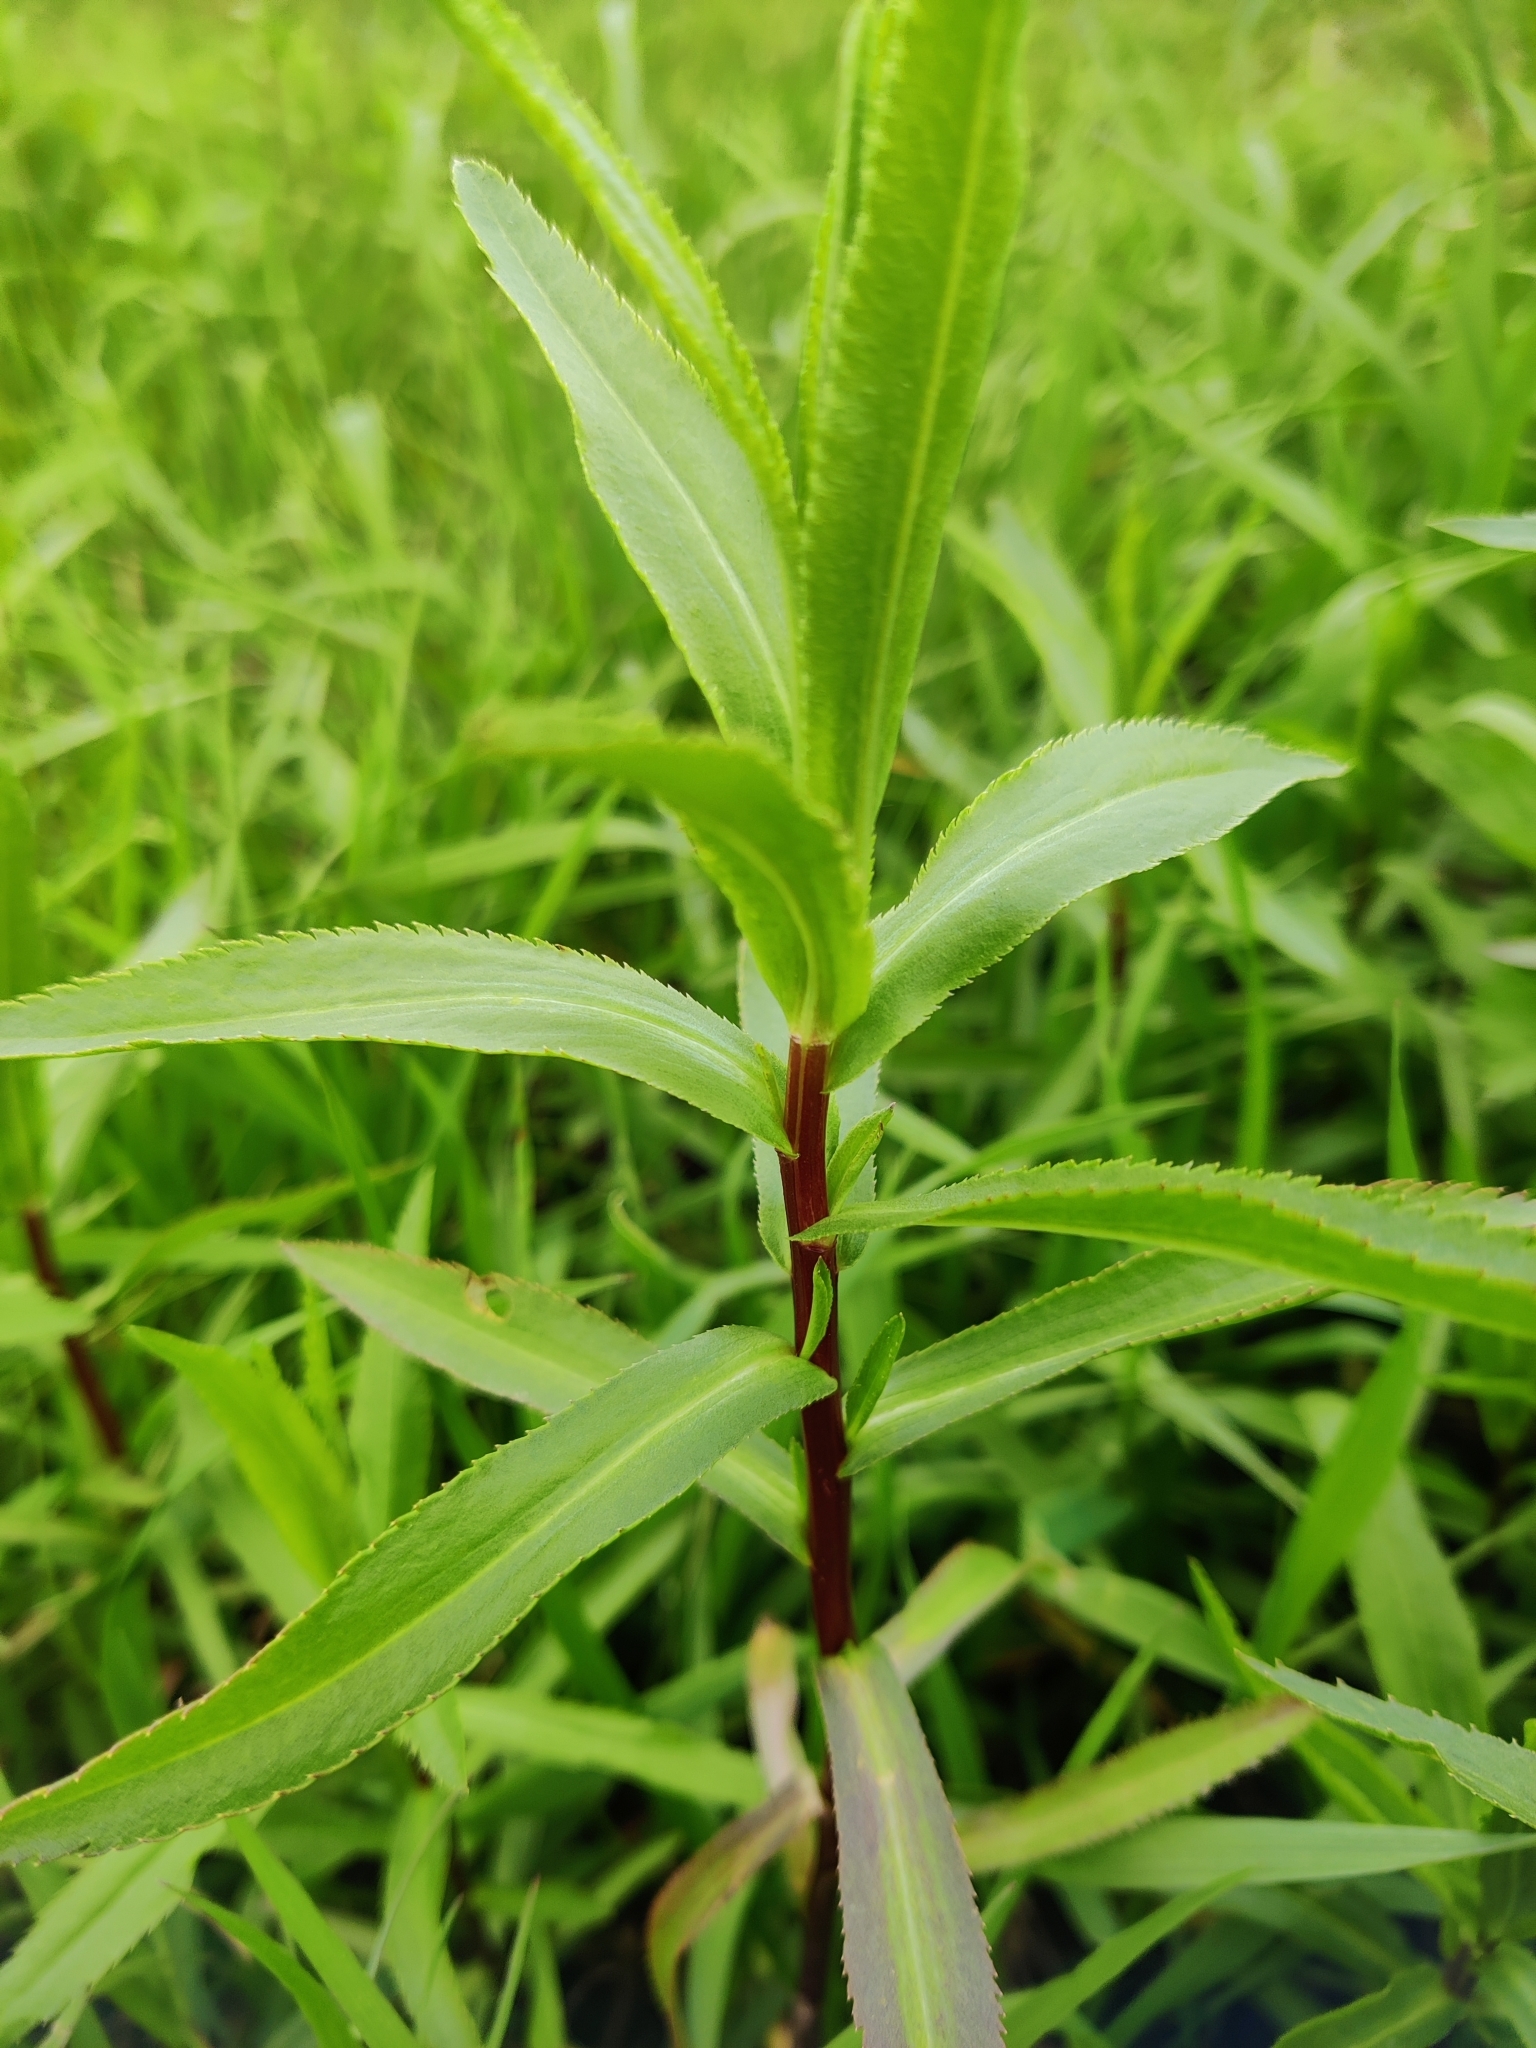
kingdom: Plantae
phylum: Tracheophyta
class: Magnoliopsida
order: Asterales
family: Asteraceae
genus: Achillea
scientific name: Achillea salicifolia
